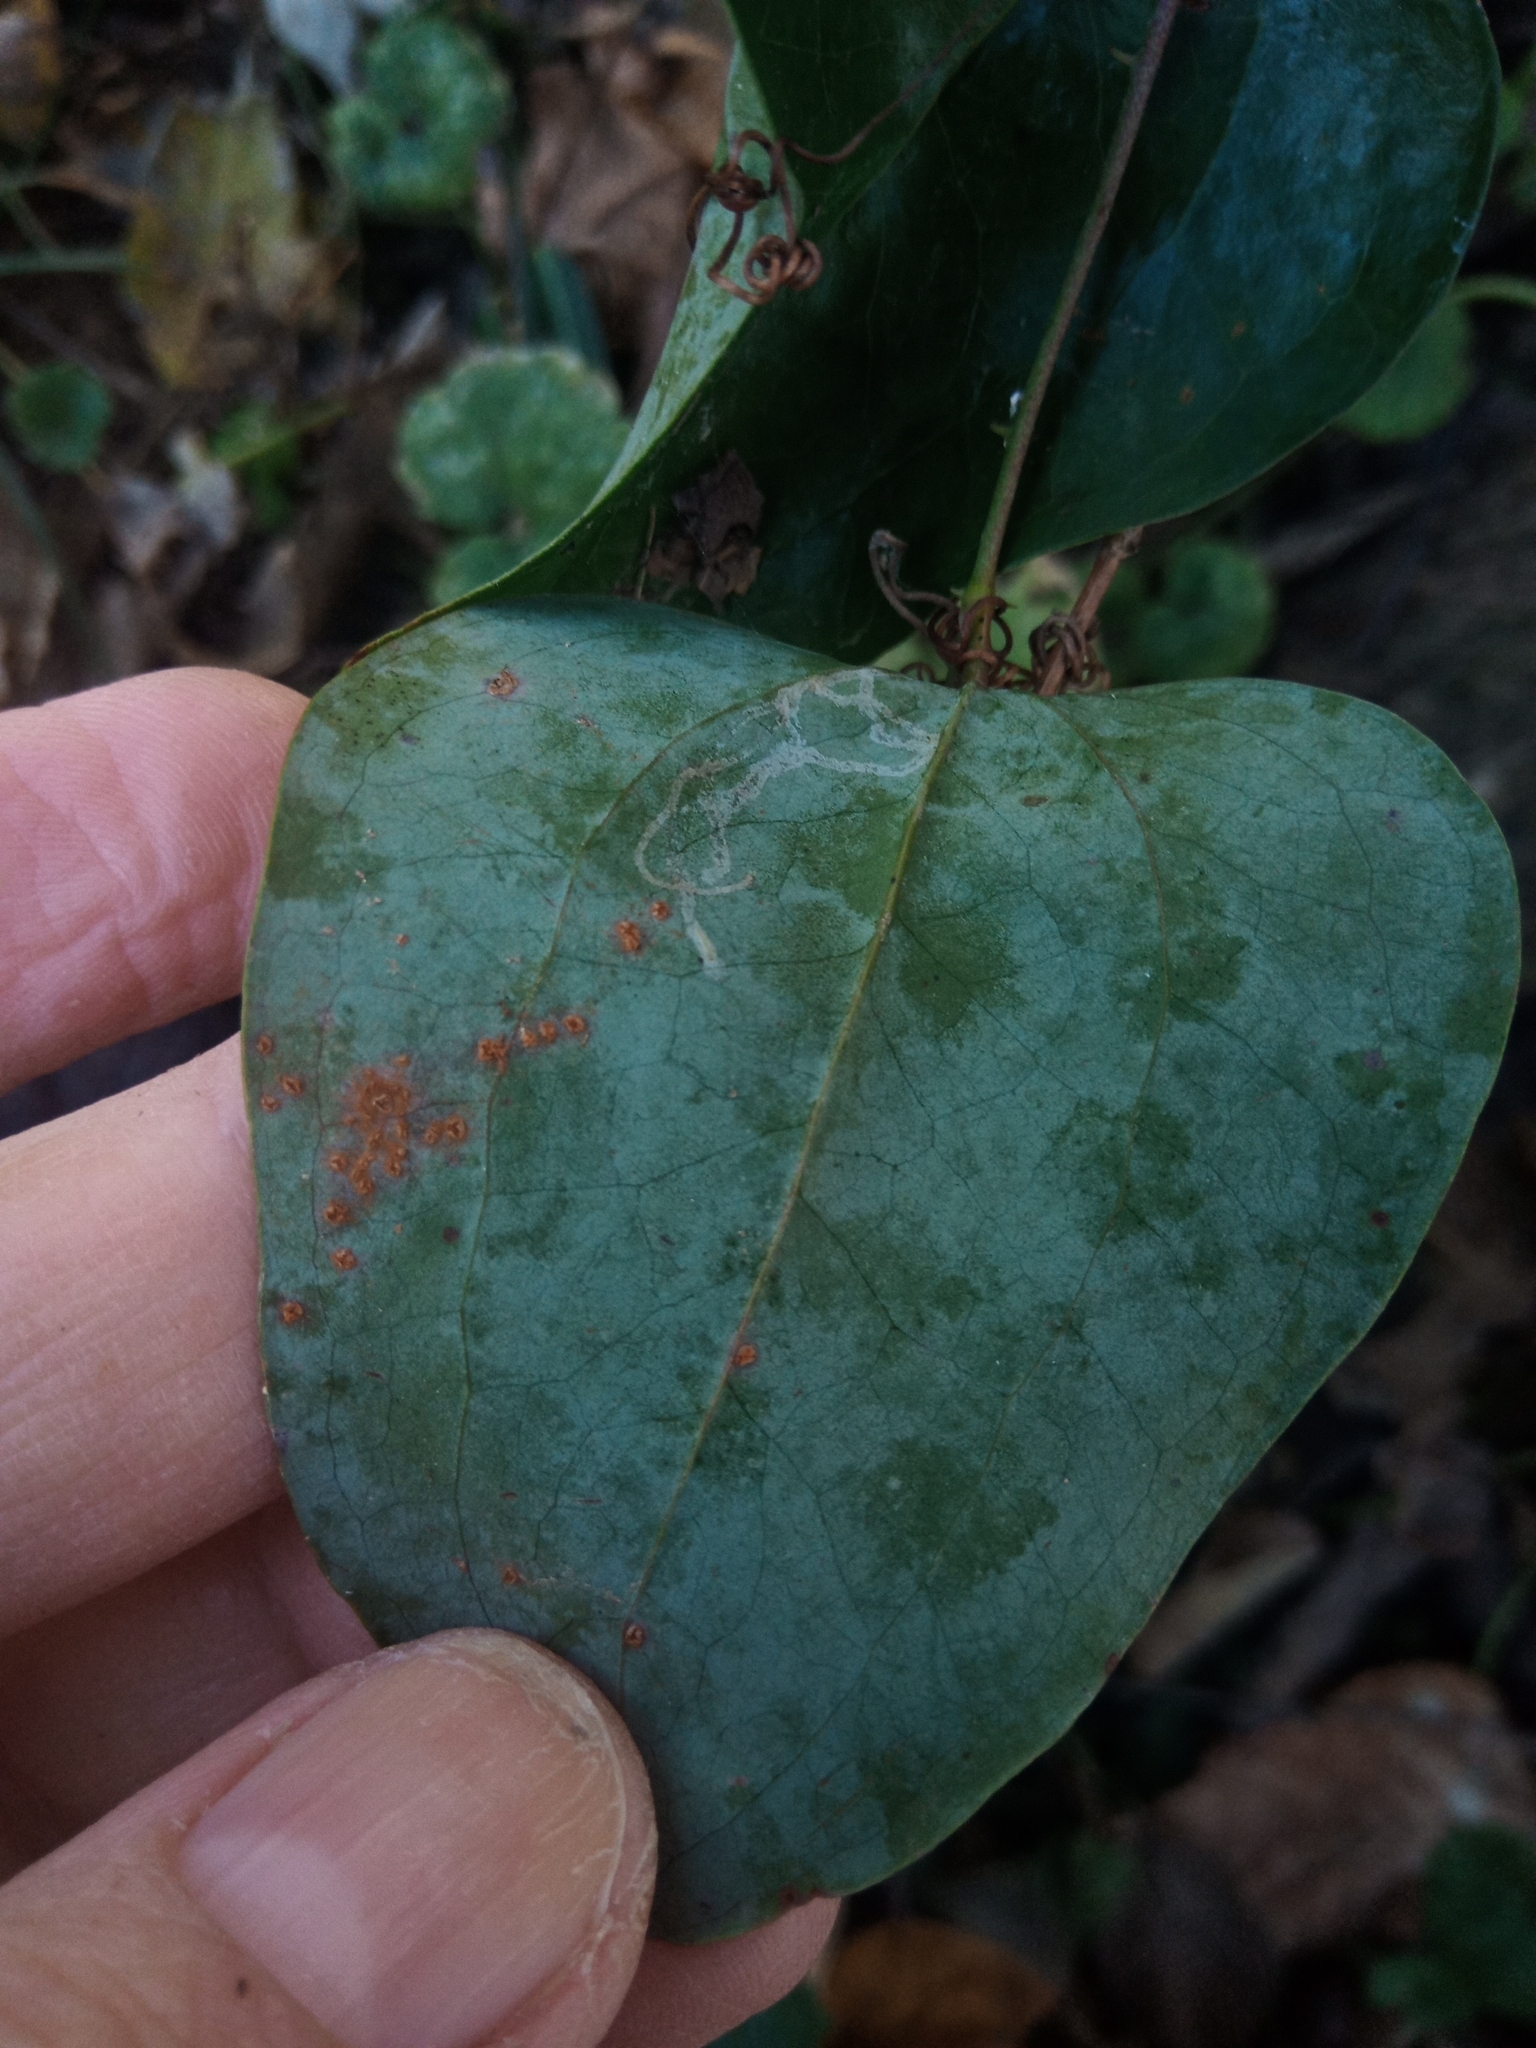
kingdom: Plantae
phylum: Tracheophyta
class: Liliopsida
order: Liliales
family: Smilacaceae
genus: Smilax
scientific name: Smilax glauca
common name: Cat greenbrier
